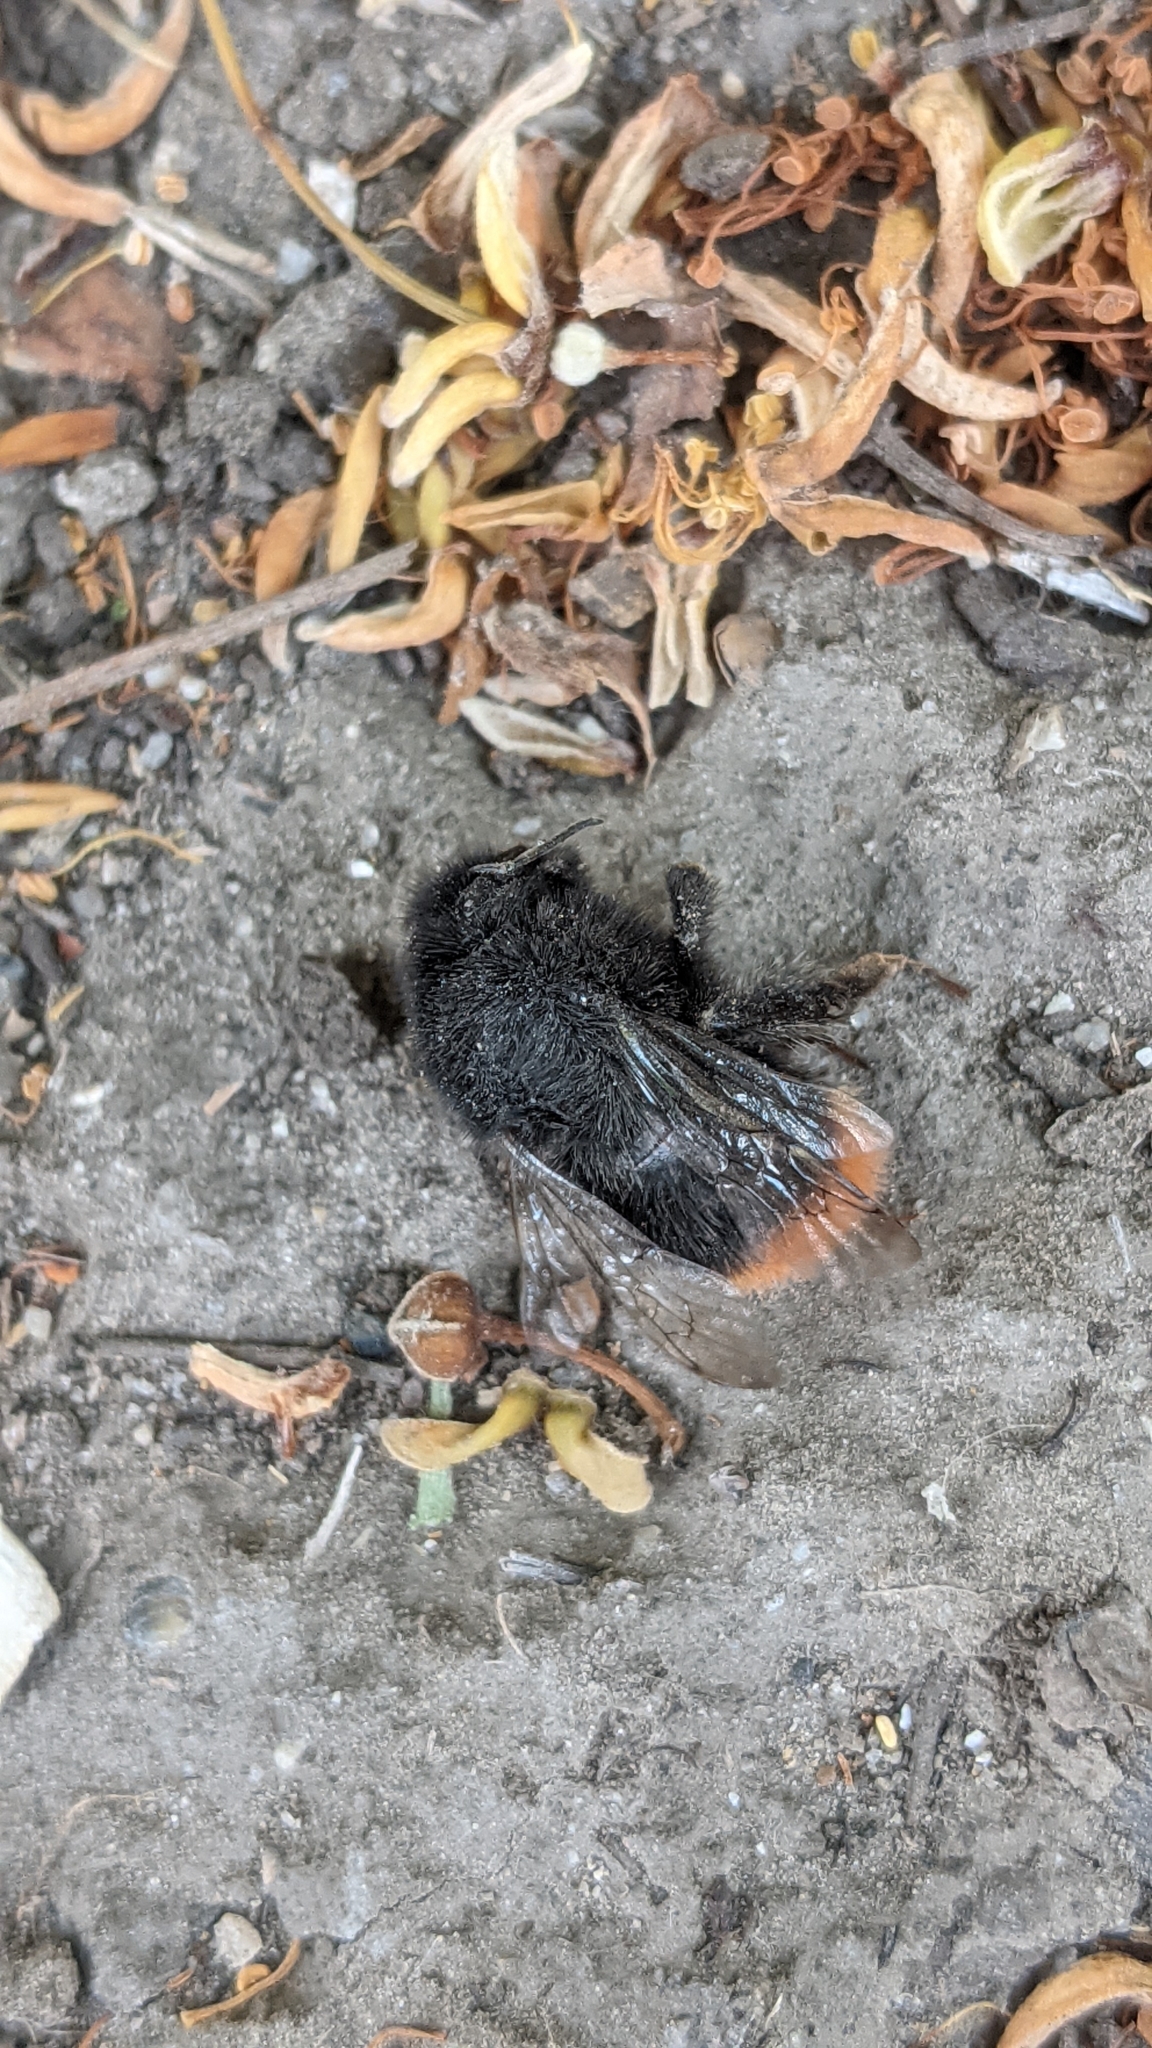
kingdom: Animalia
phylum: Arthropoda
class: Insecta
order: Hymenoptera
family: Apidae
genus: Bombus
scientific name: Bombus
